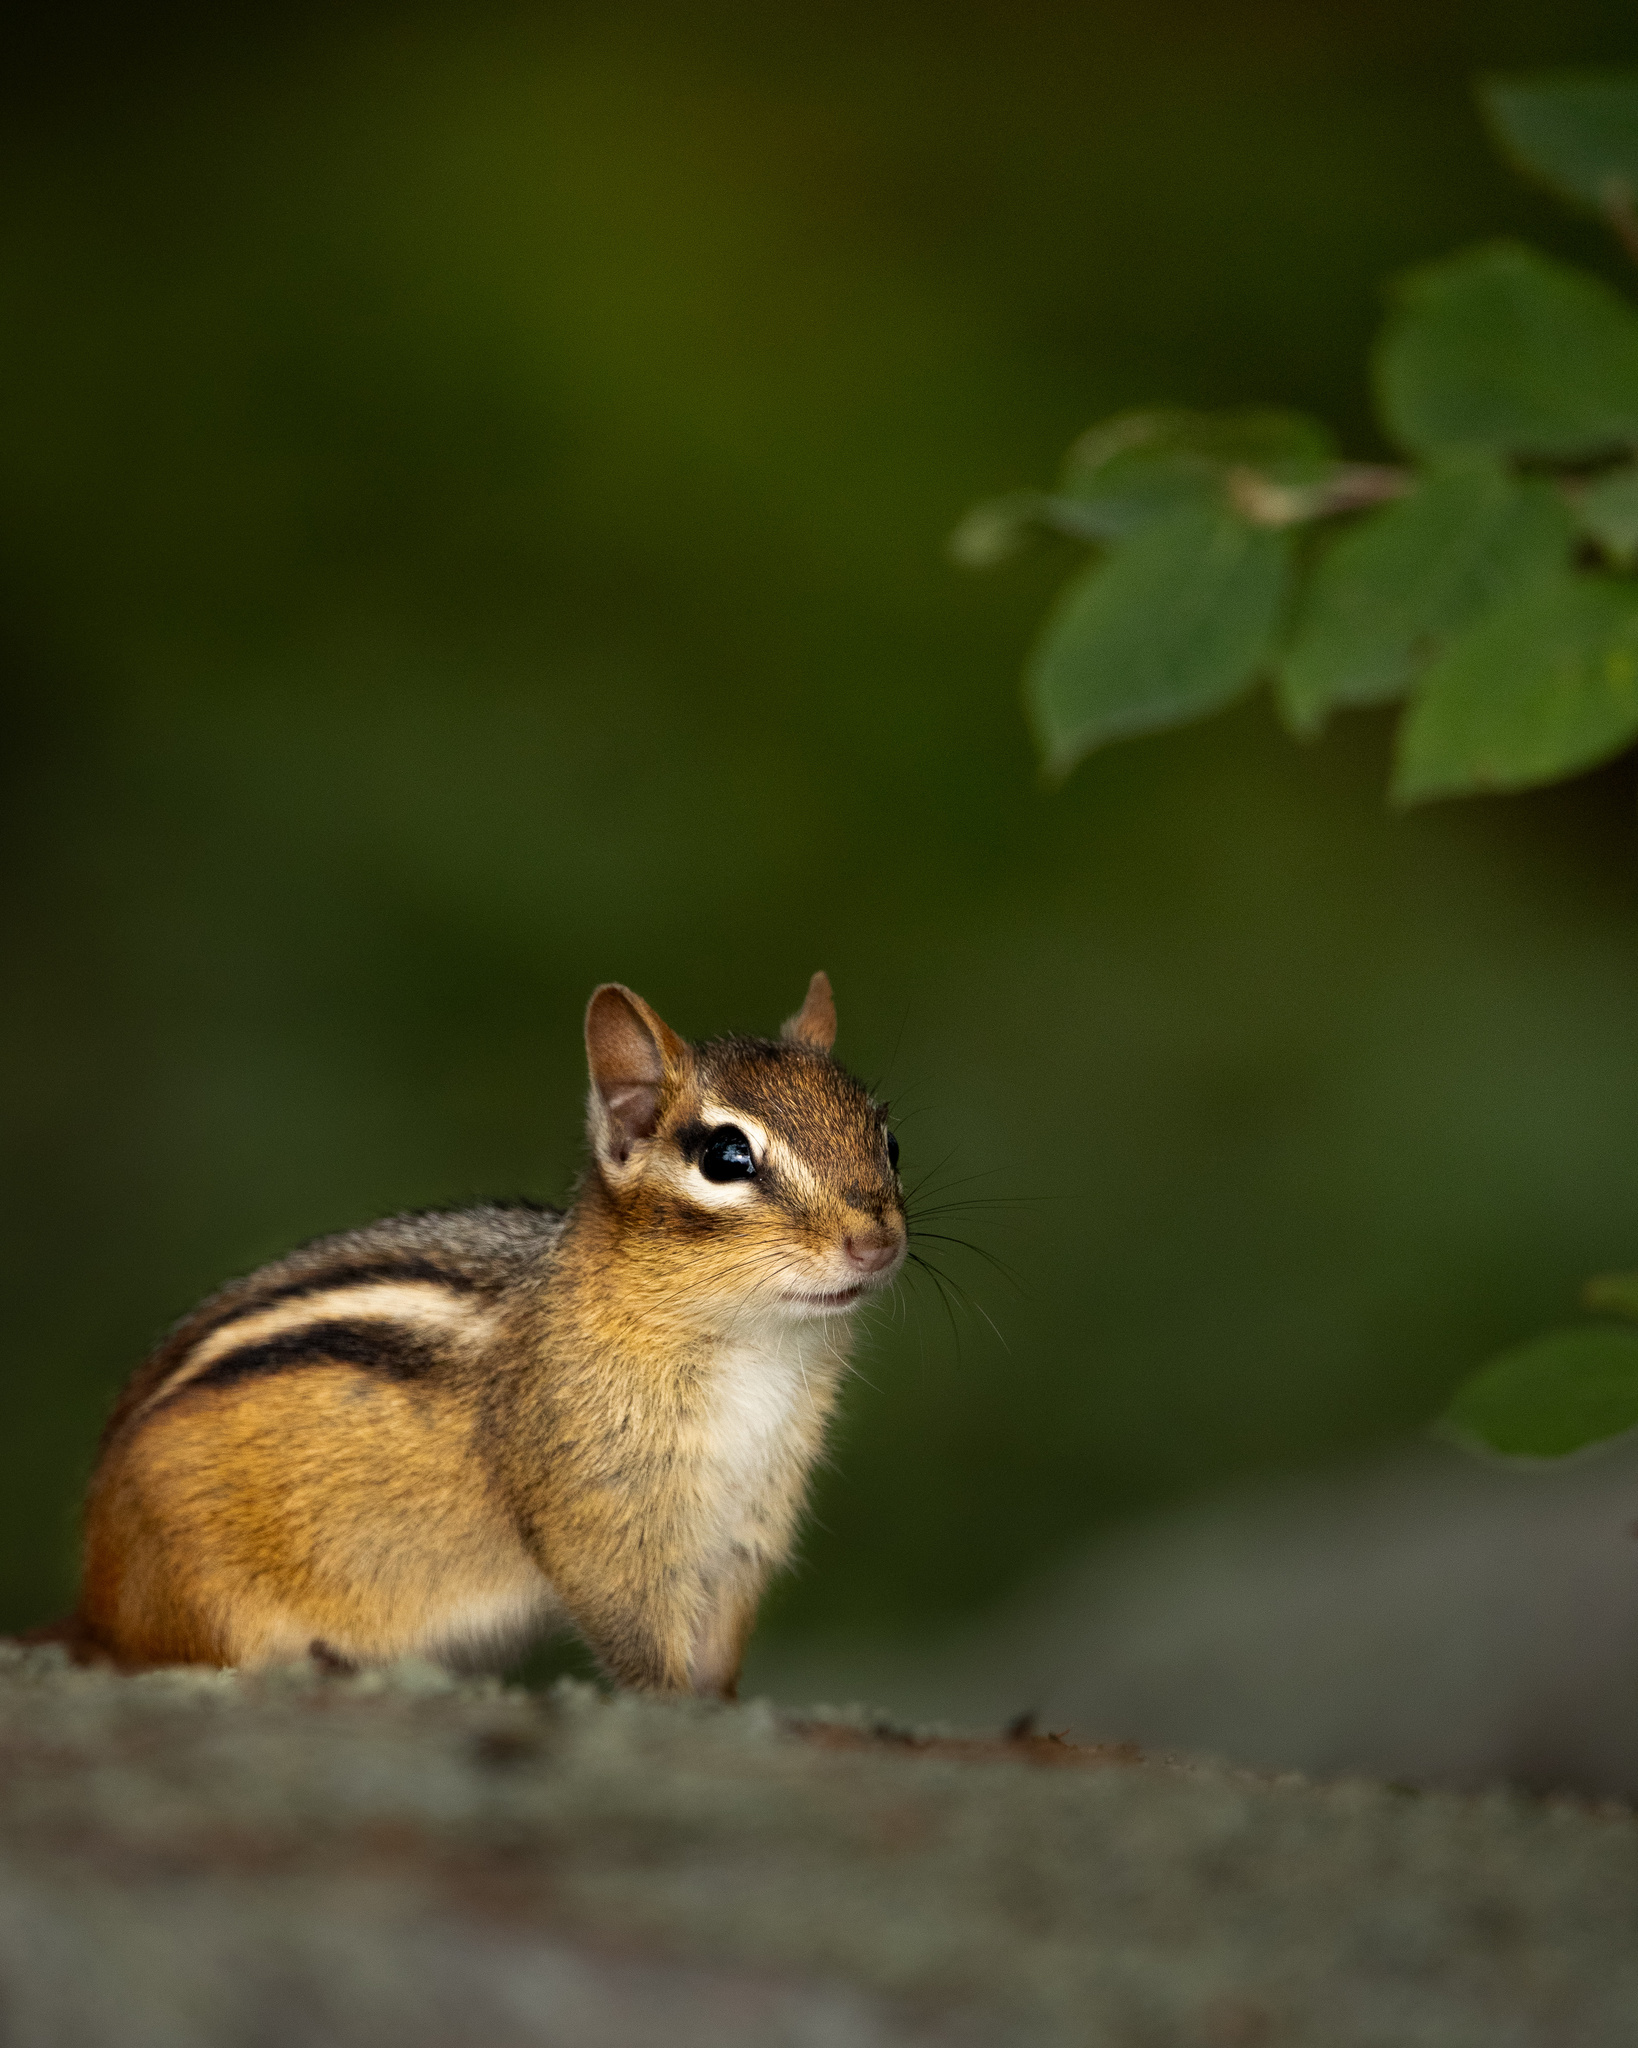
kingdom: Animalia
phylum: Chordata
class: Mammalia
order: Rodentia
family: Sciuridae
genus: Tamias
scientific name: Tamias striatus
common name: Eastern chipmunk
